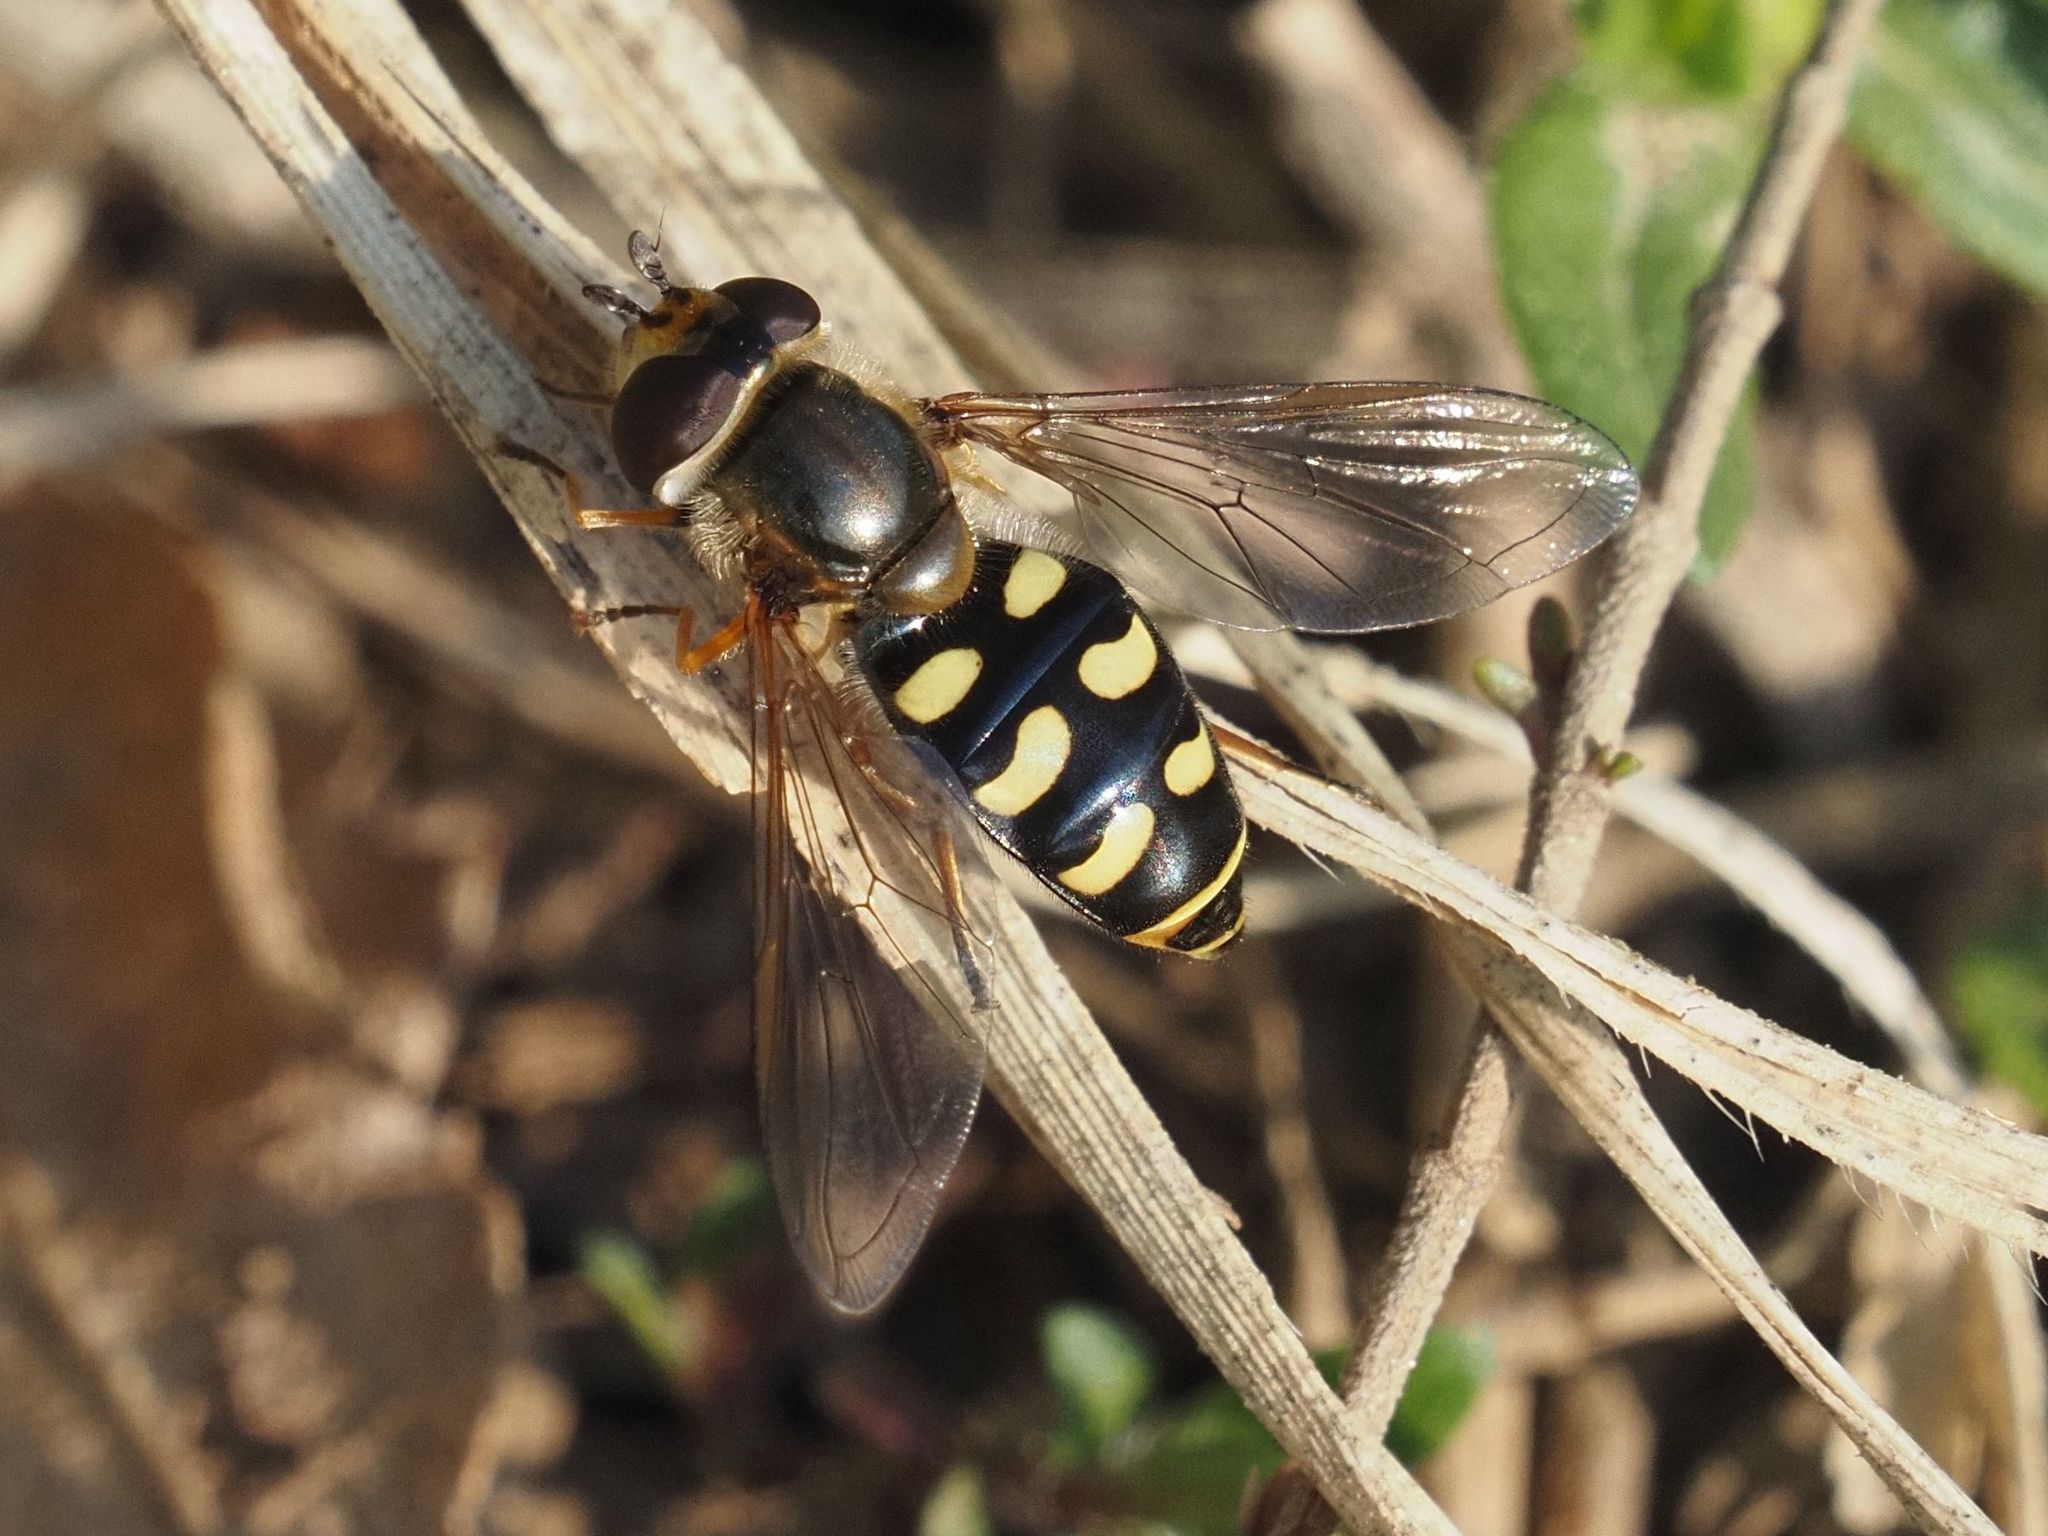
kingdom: Animalia
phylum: Arthropoda
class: Insecta
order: Diptera
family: Syrphidae
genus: Eupeodes
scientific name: Eupeodes luniger
